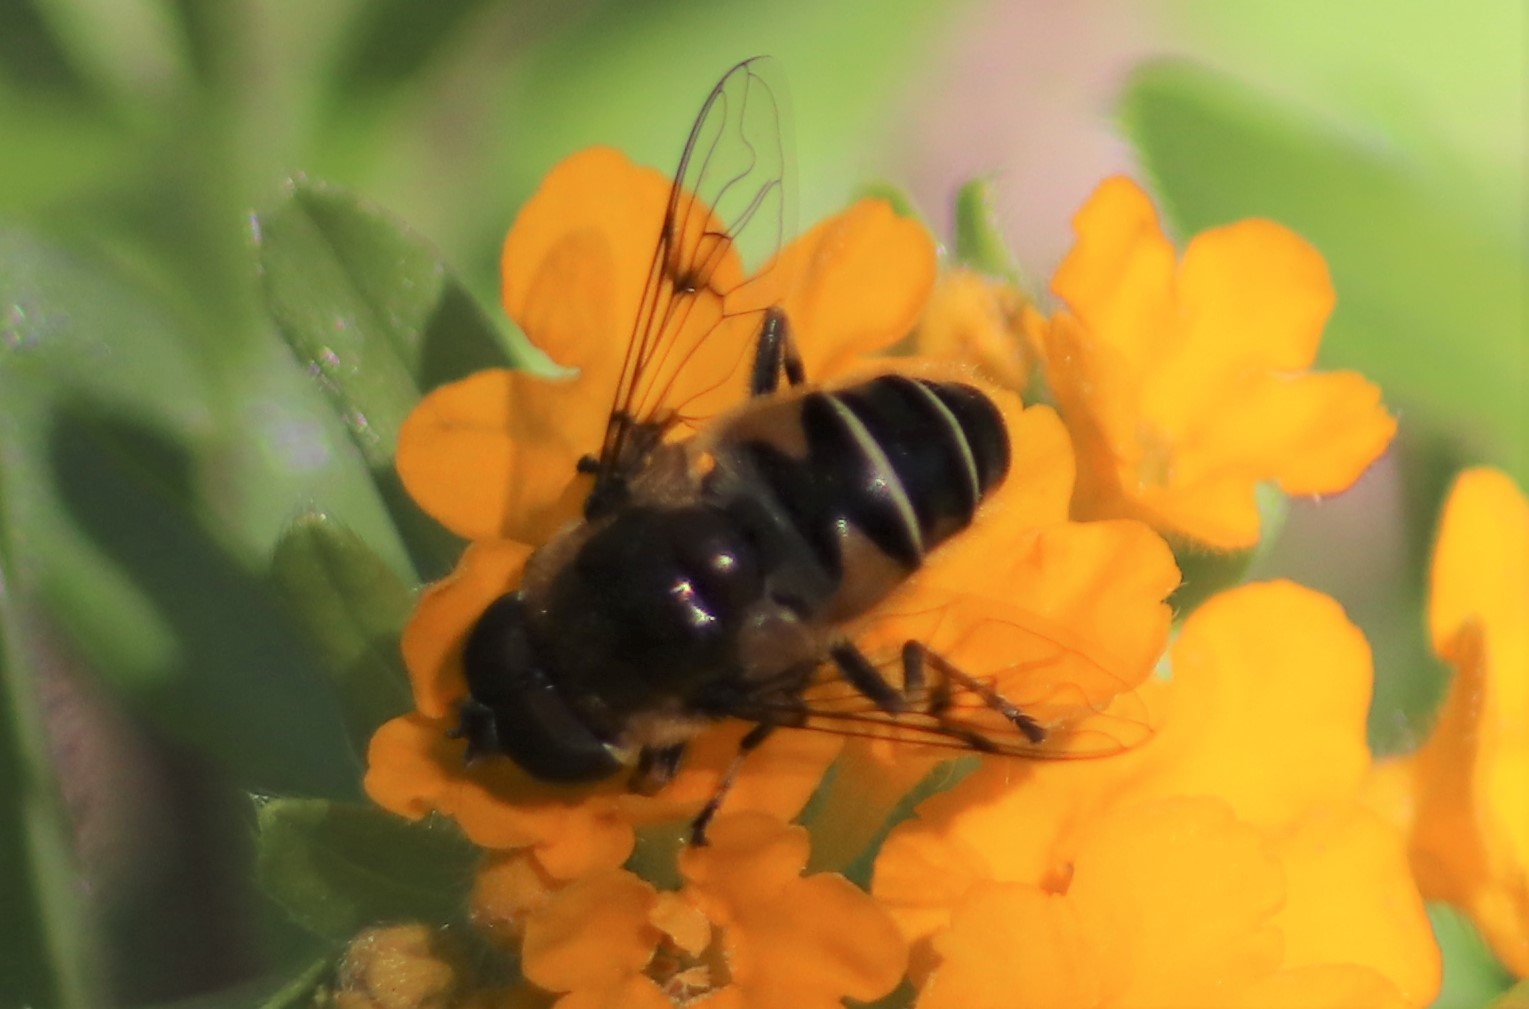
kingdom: Animalia
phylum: Arthropoda
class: Insecta
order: Diptera
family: Syrphidae
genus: Eristalis
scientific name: Eristalis dimidiata
